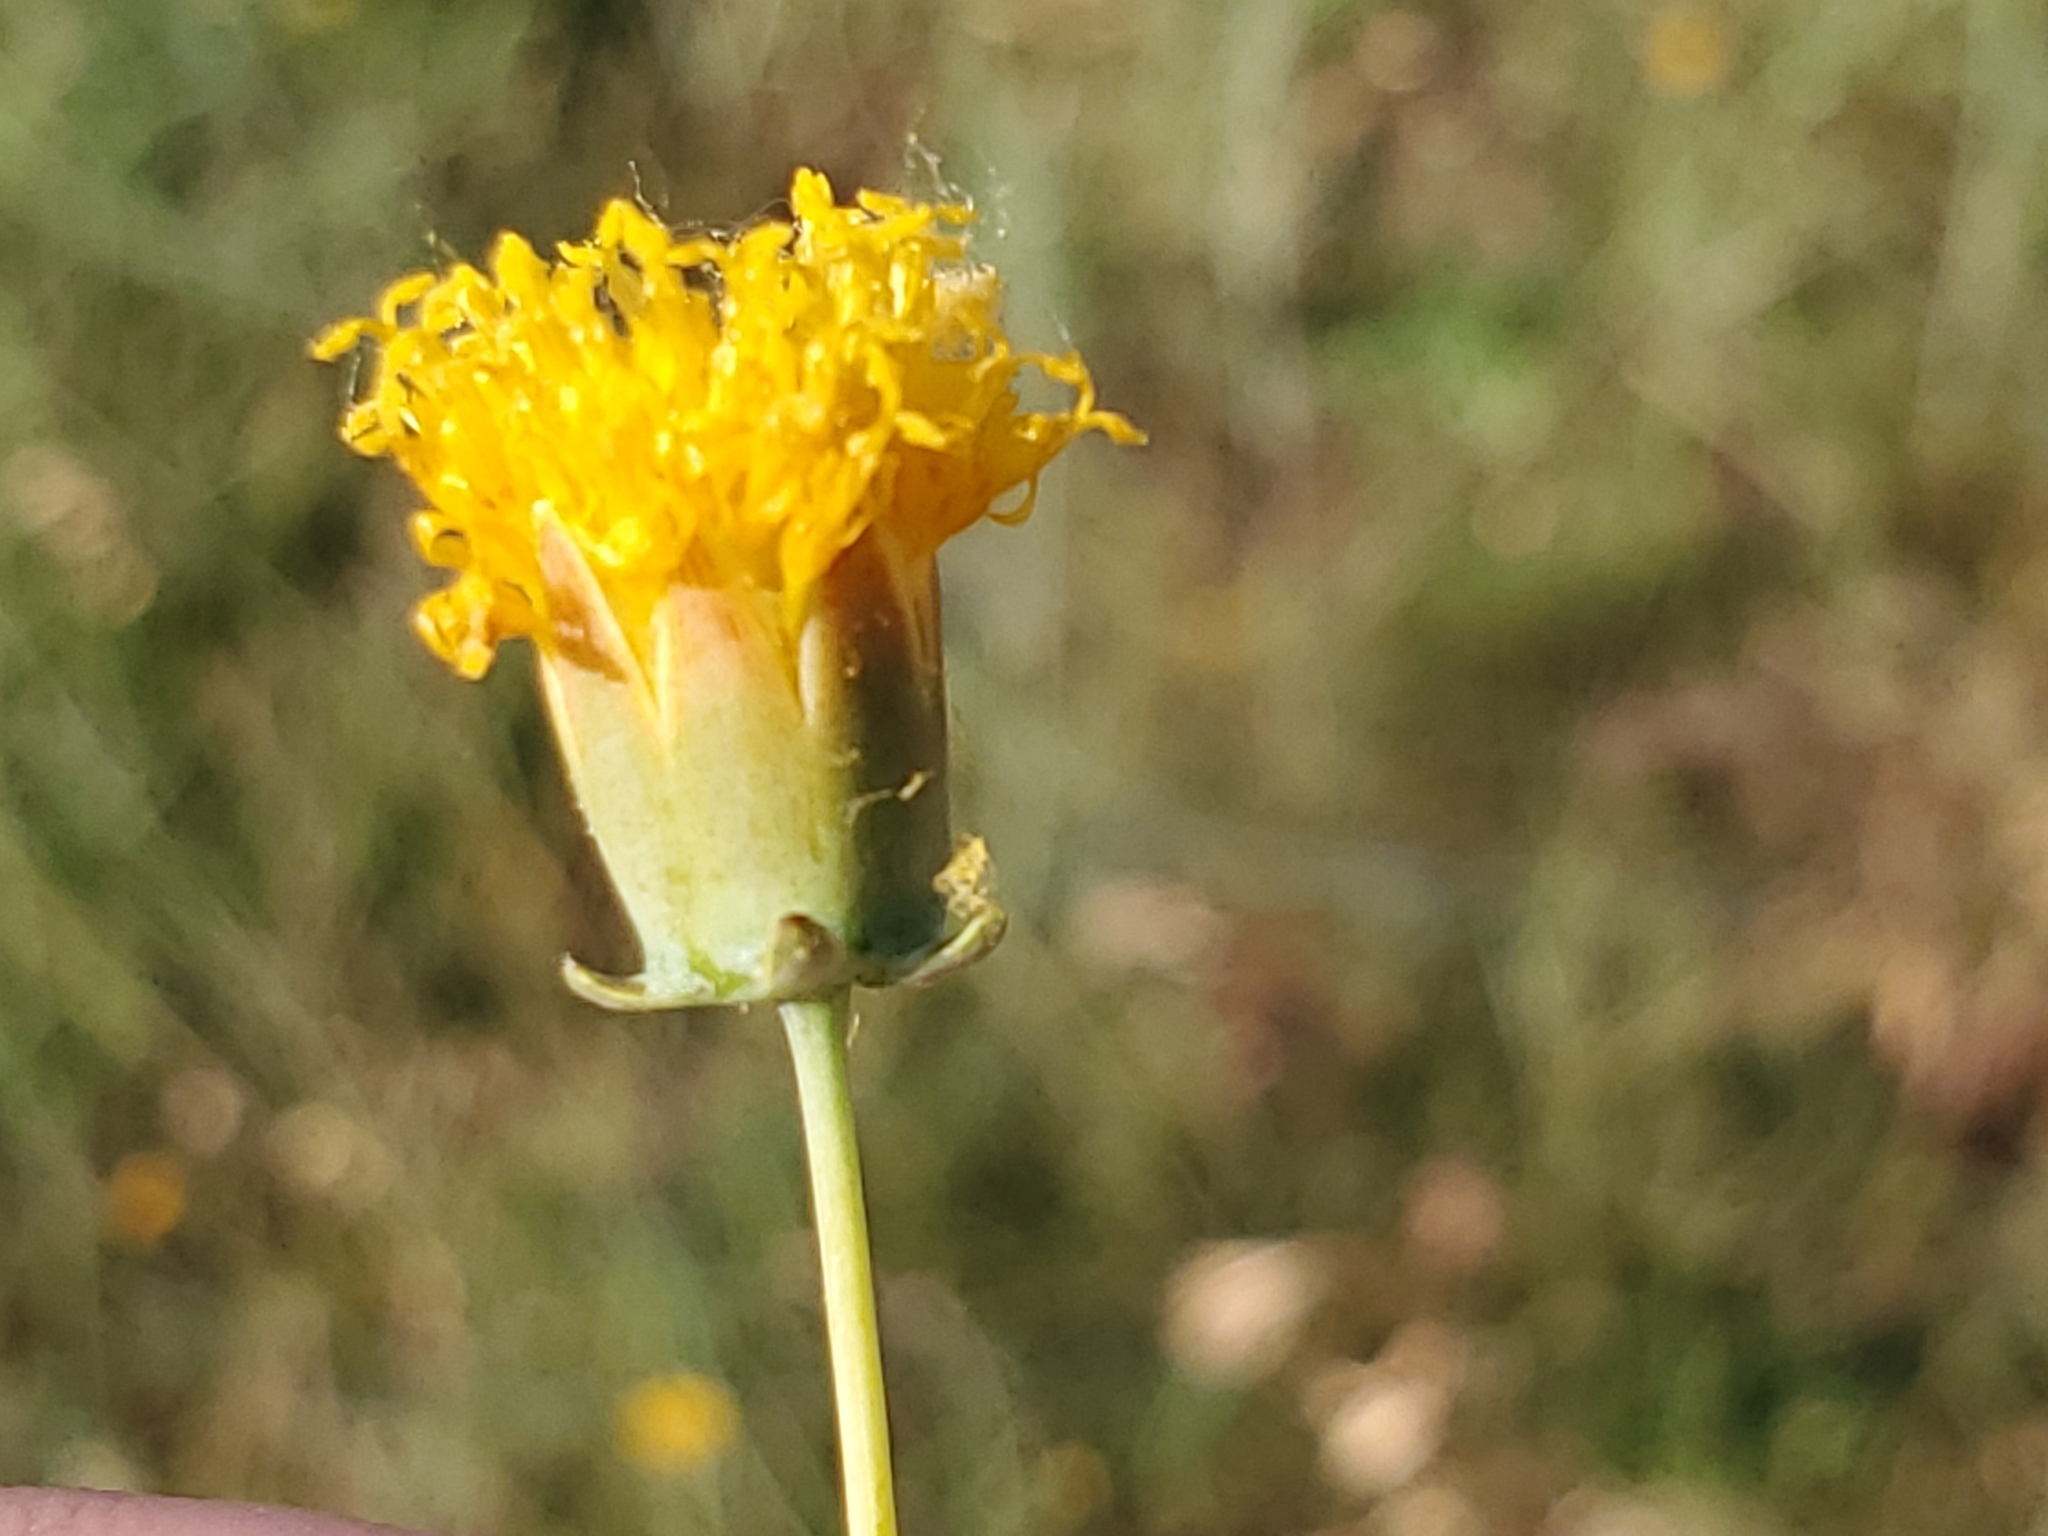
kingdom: Plantae
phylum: Tracheophyta
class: Magnoliopsida
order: Asterales
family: Asteraceae
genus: Thelesperma
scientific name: Thelesperma megapotamicum
